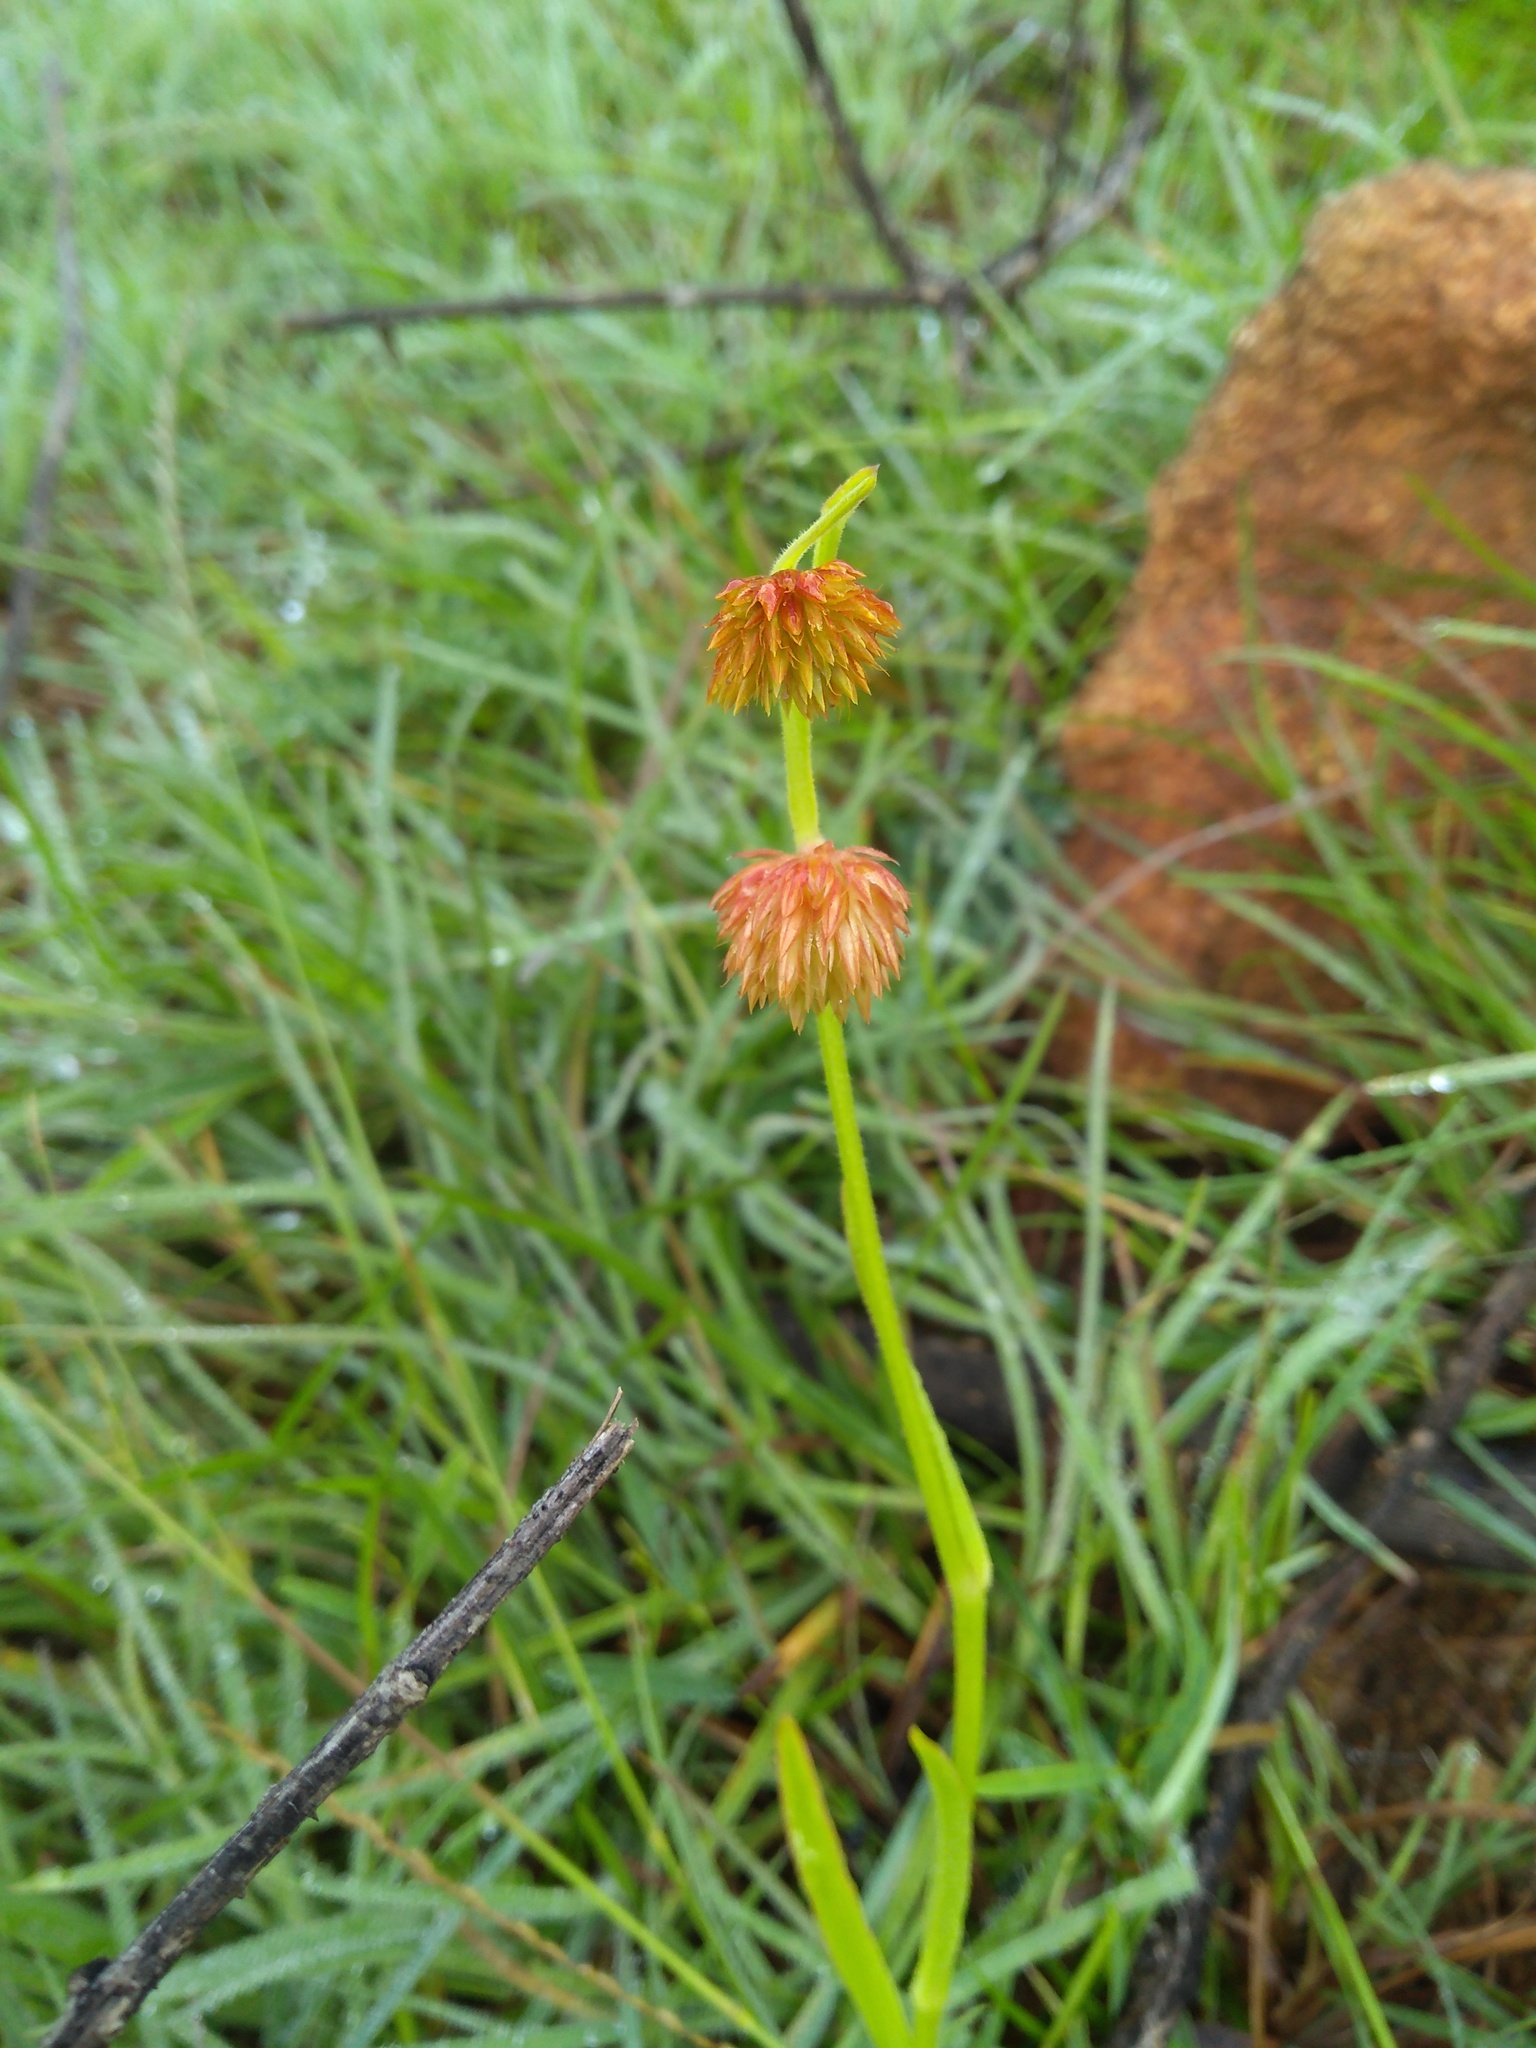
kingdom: Plantae
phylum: Tracheophyta
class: Magnoliopsida
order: Caryophyllales
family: Amaranthaceae
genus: Allmania
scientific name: Allmania nodiflora
